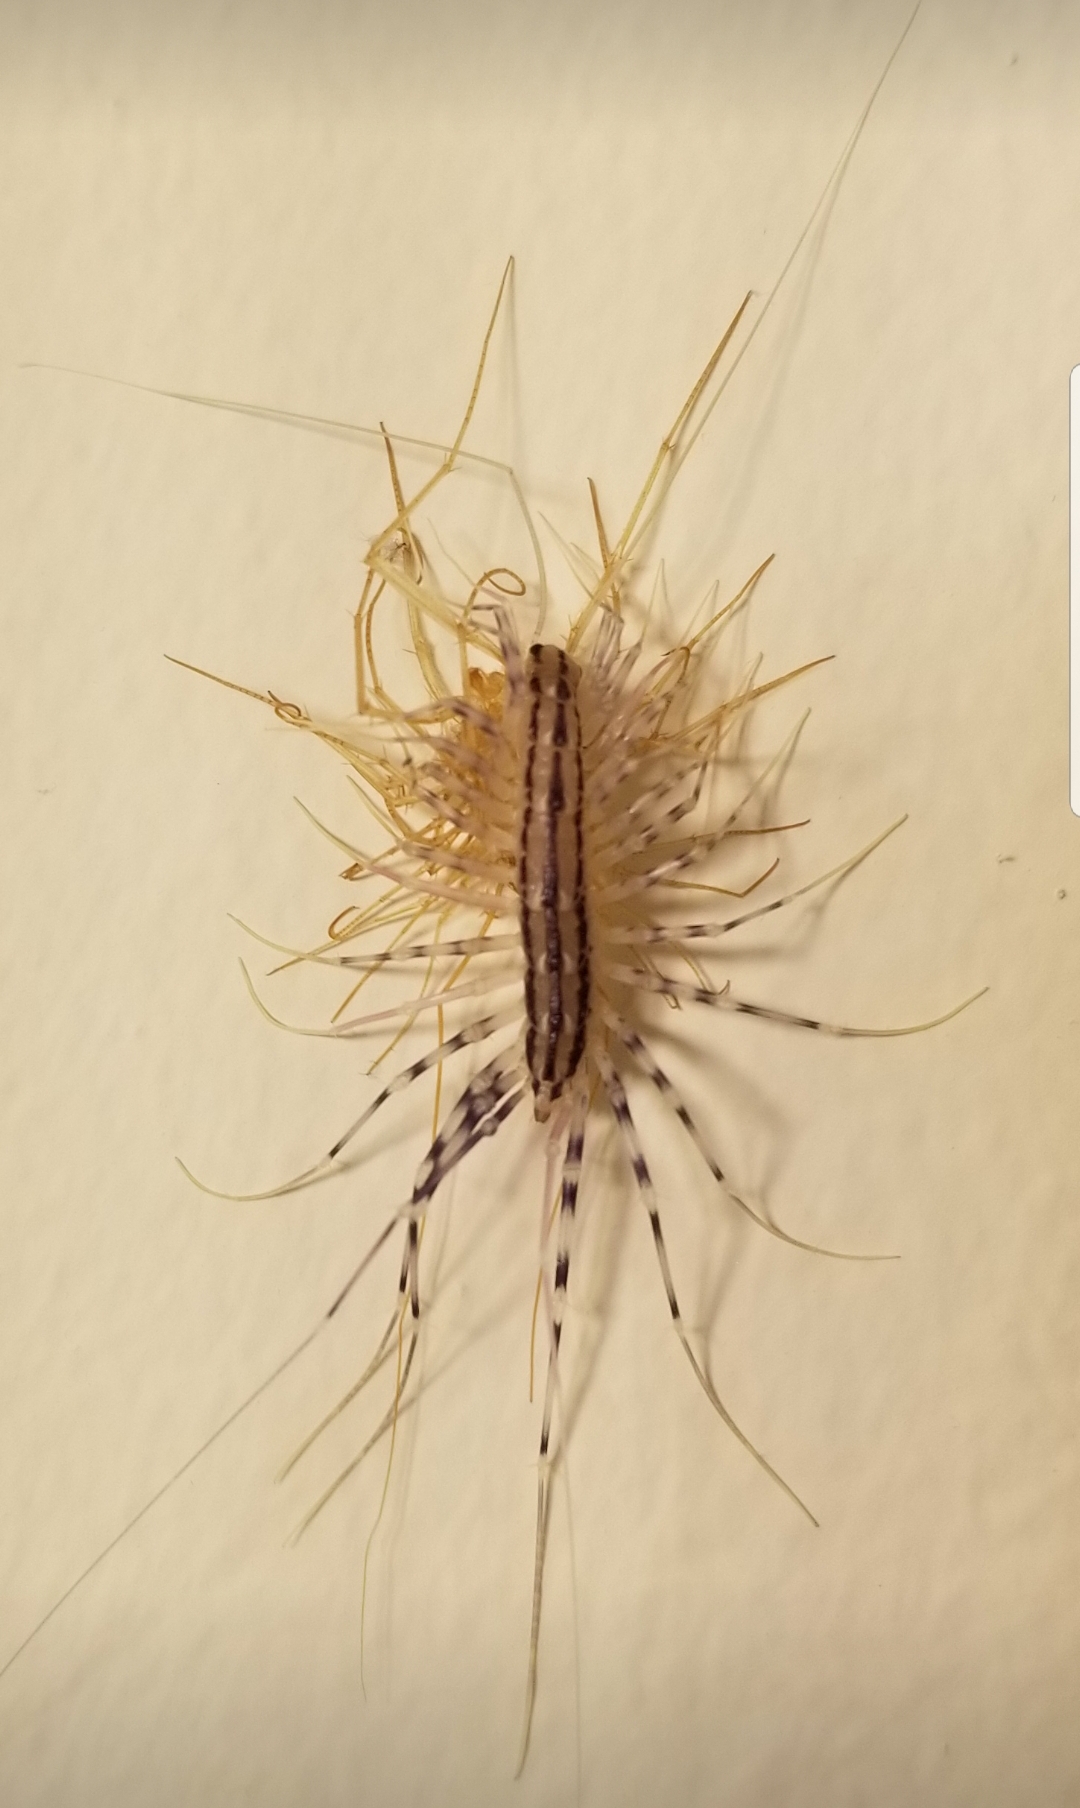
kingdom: Animalia
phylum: Arthropoda
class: Chilopoda
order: Scutigeromorpha
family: Scutigeridae
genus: Scutigera
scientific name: Scutigera coleoptrata
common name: House centipede
